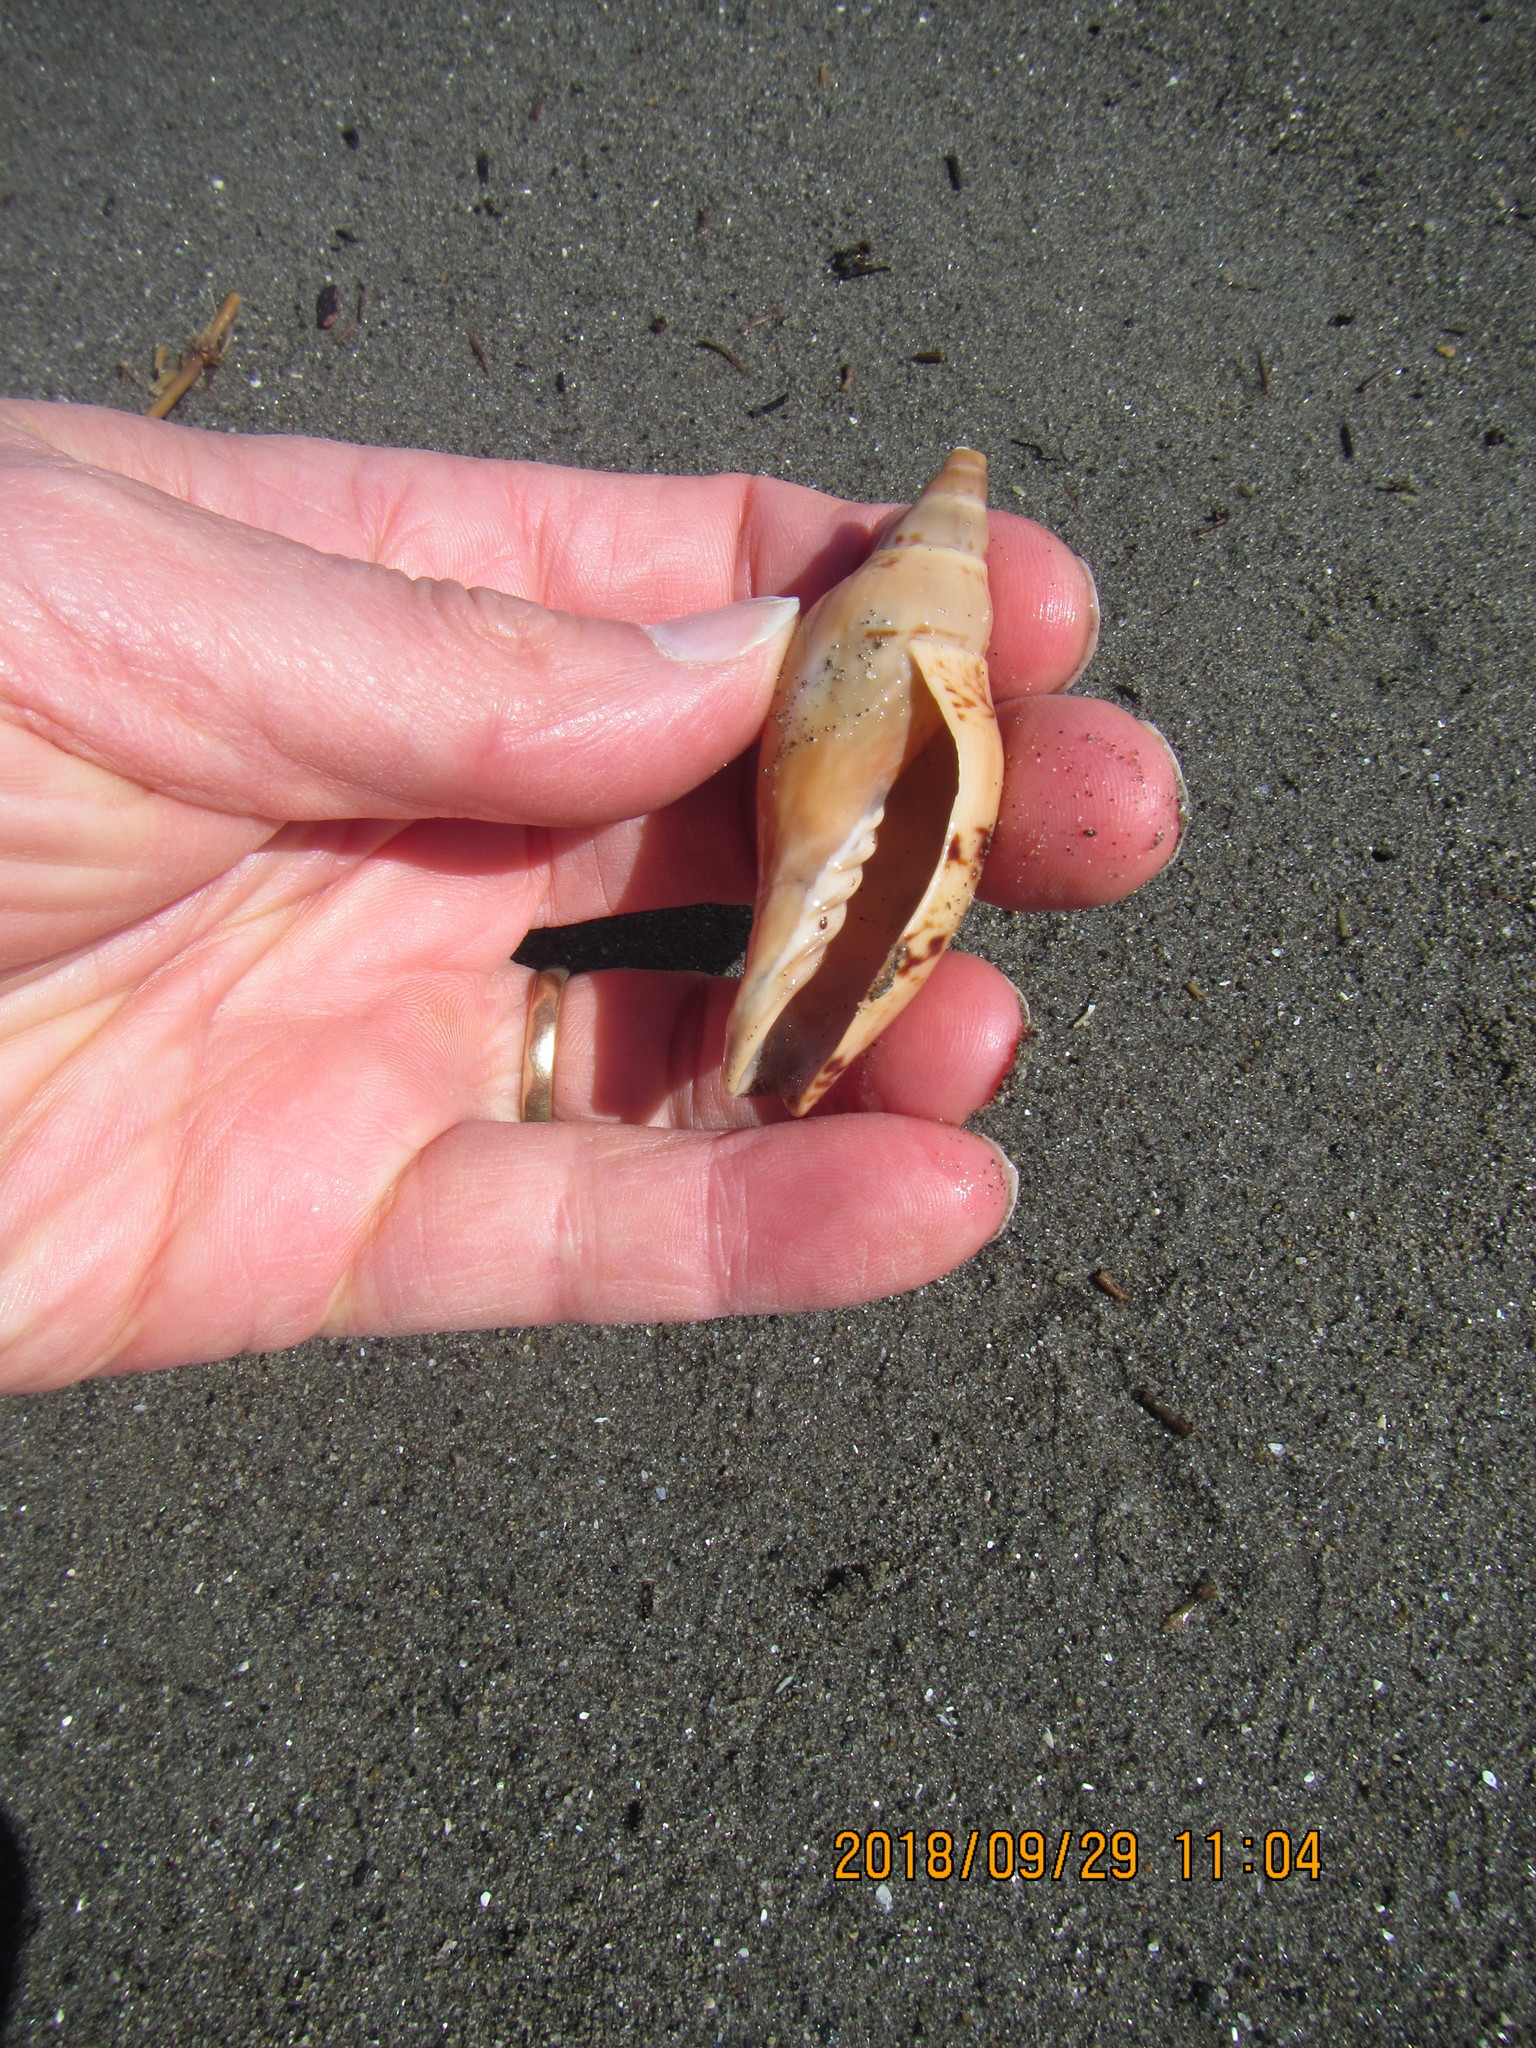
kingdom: Animalia
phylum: Mollusca
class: Gastropoda
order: Neogastropoda
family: Volutidae
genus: Alcithoe
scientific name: Alcithoe arabica
